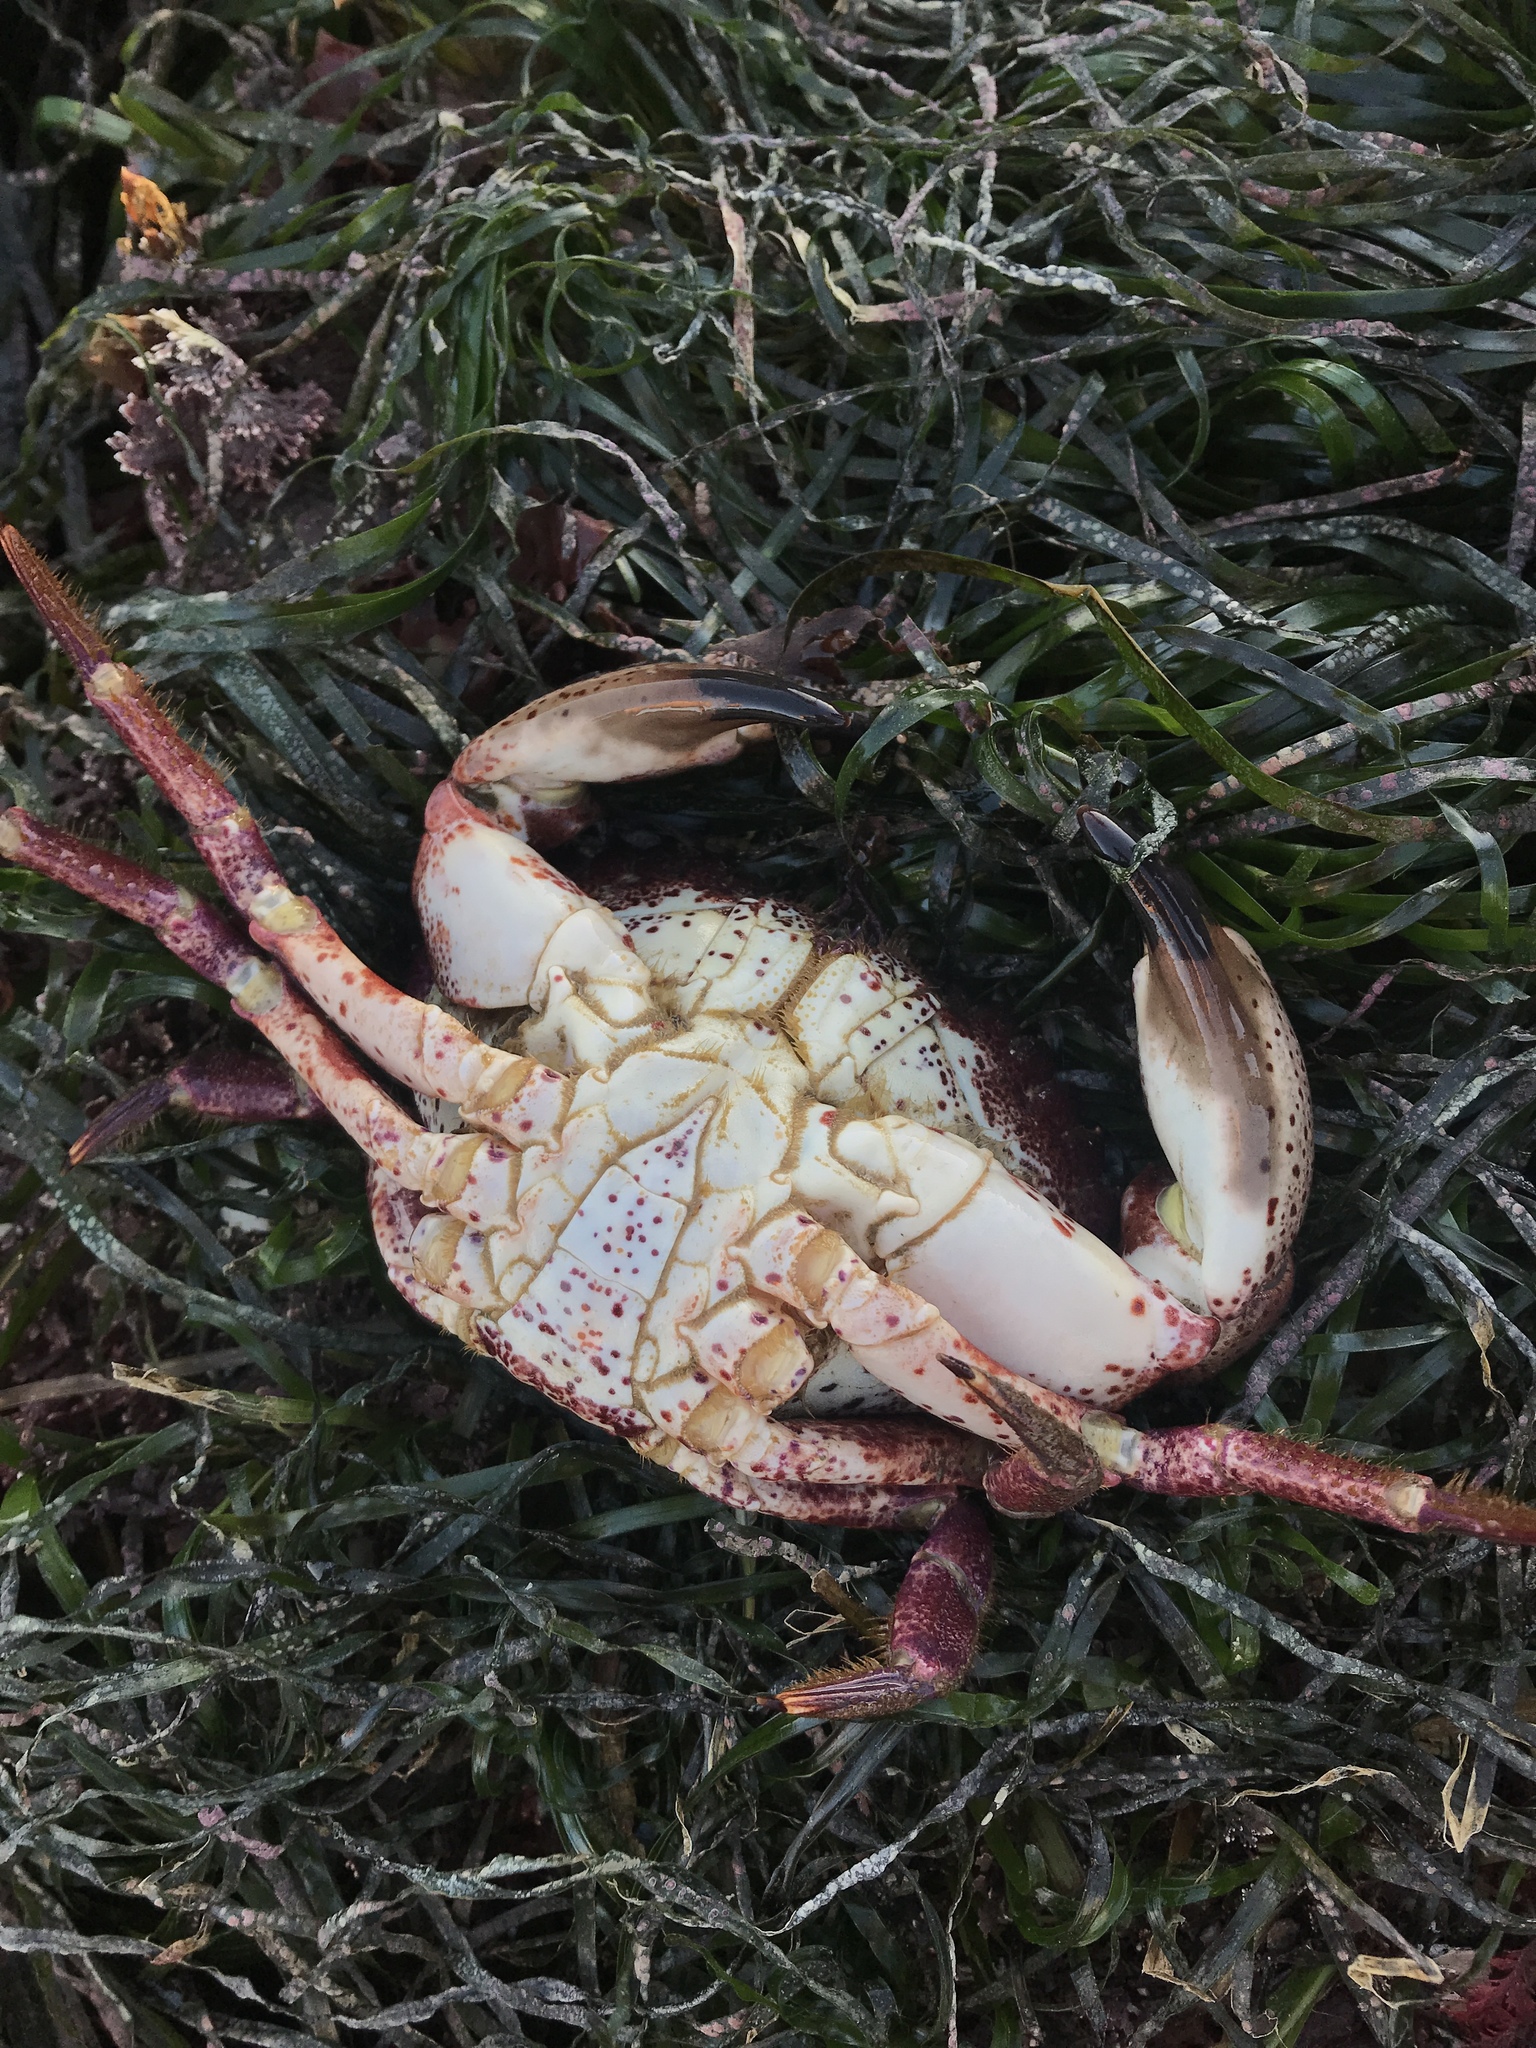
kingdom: Animalia
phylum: Arthropoda
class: Malacostraca
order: Decapoda
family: Cancridae
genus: Romaleon
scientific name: Romaleon antennarium
